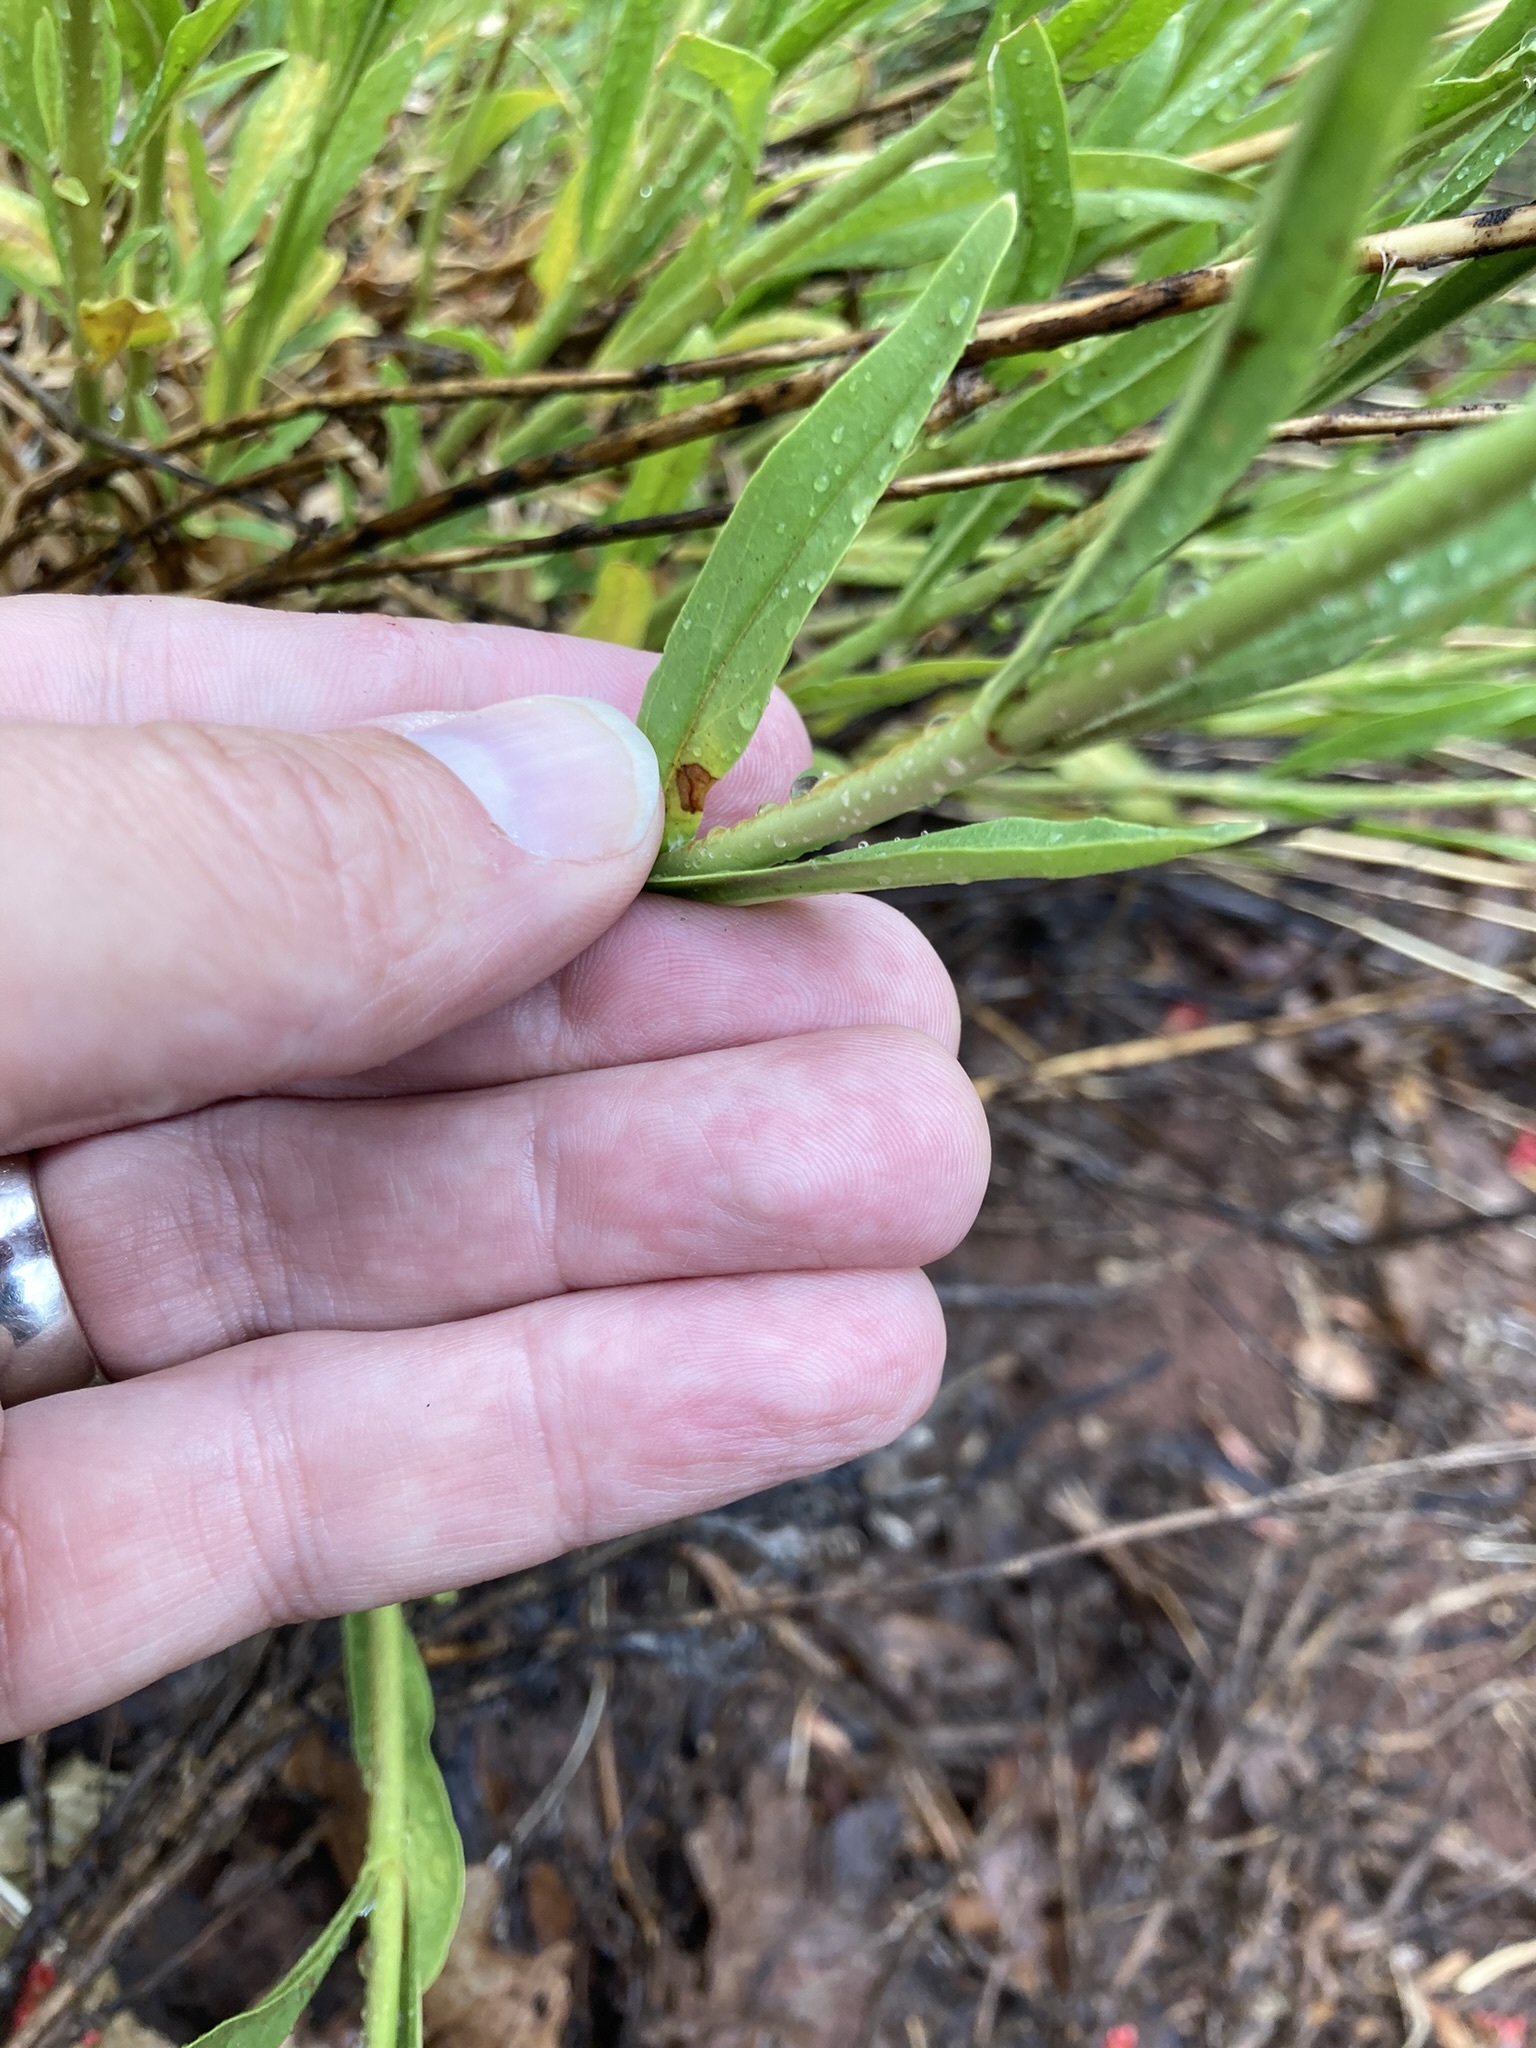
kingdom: Plantae
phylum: Tracheophyta
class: Magnoliopsida
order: Lamiales
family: Plantaginaceae
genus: Penstemon
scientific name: Penstemon rostriflorus
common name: Bridges's penstemon
